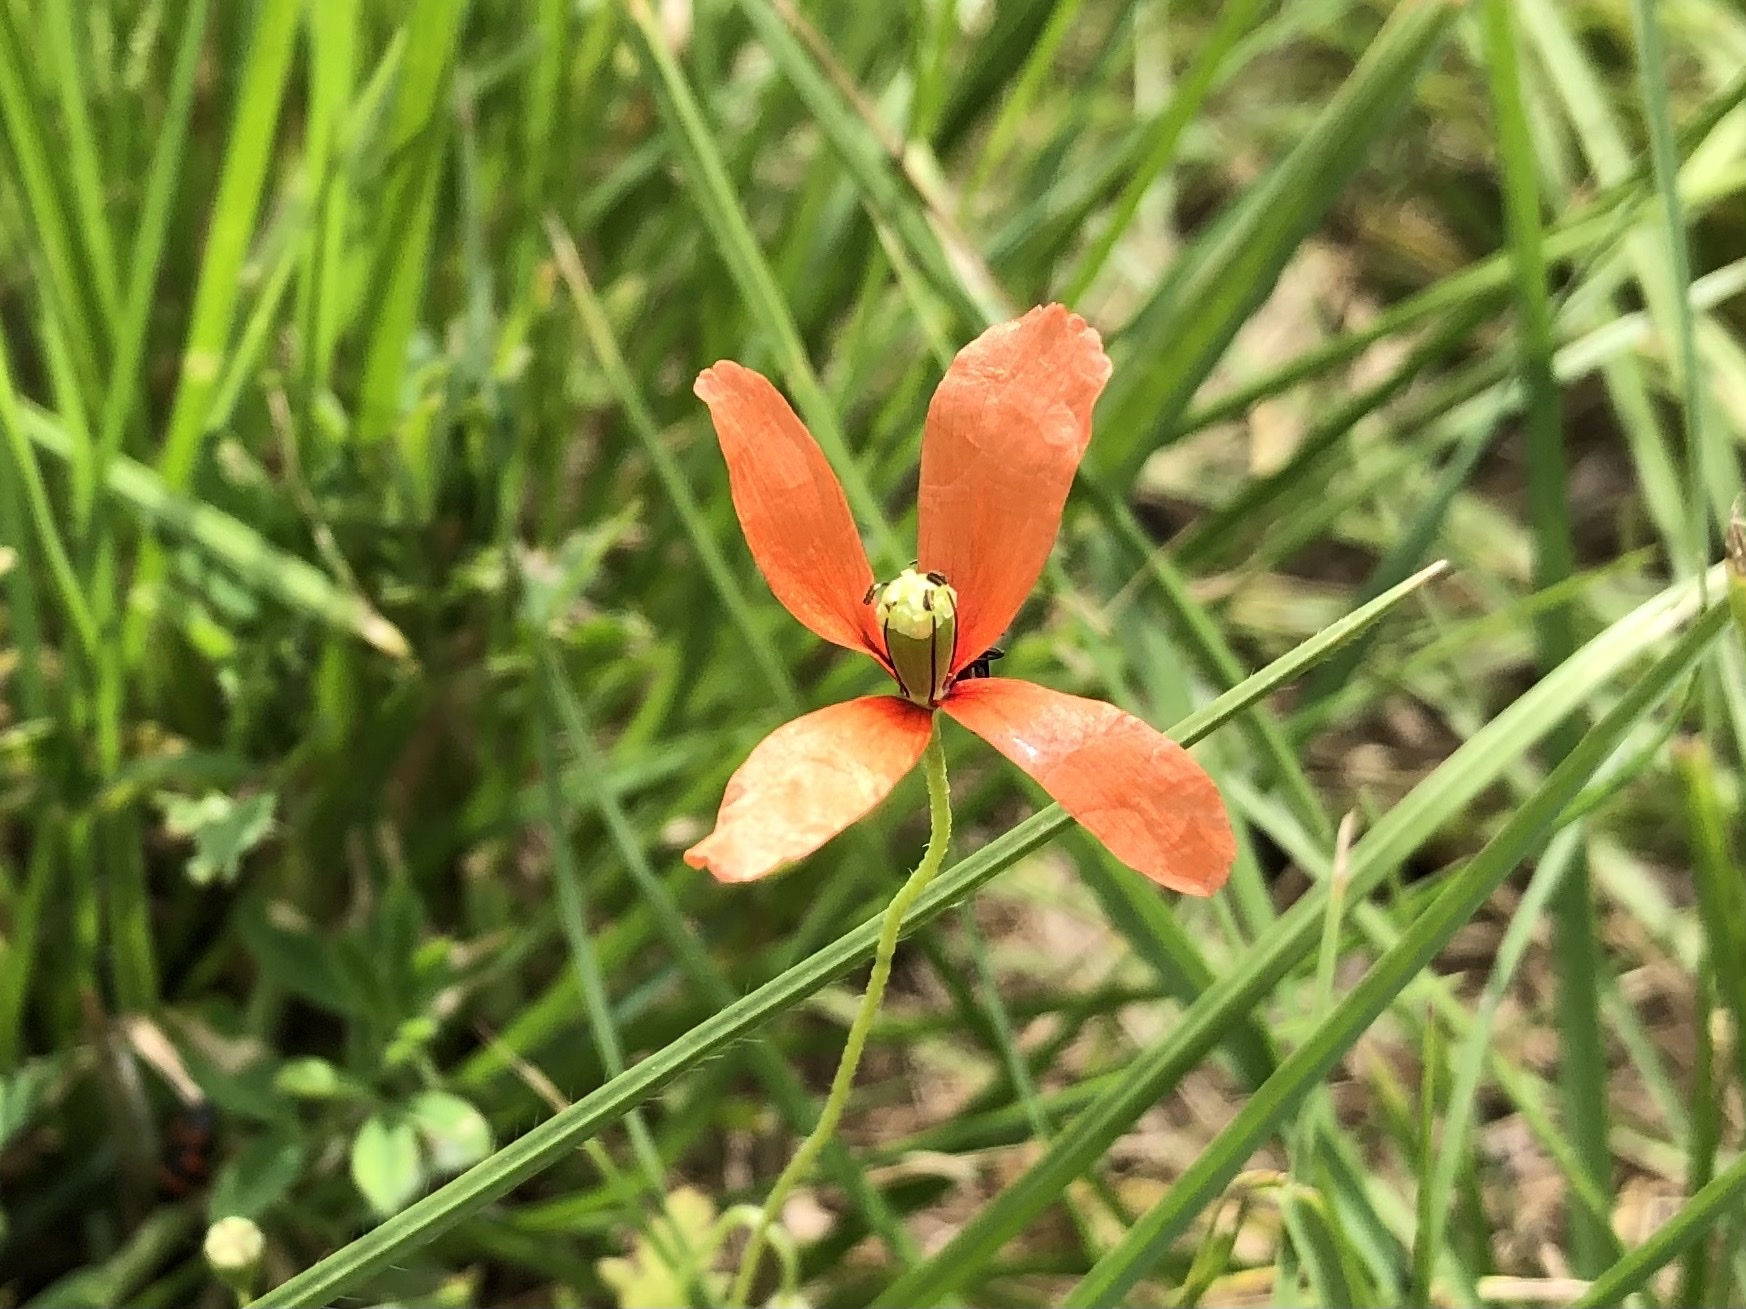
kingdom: Plantae
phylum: Tracheophyta
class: Magnoliopsida
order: Ranunculales
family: Papaveraceae
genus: Papaver
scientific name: Papaver dubium
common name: Long-headed poppy
